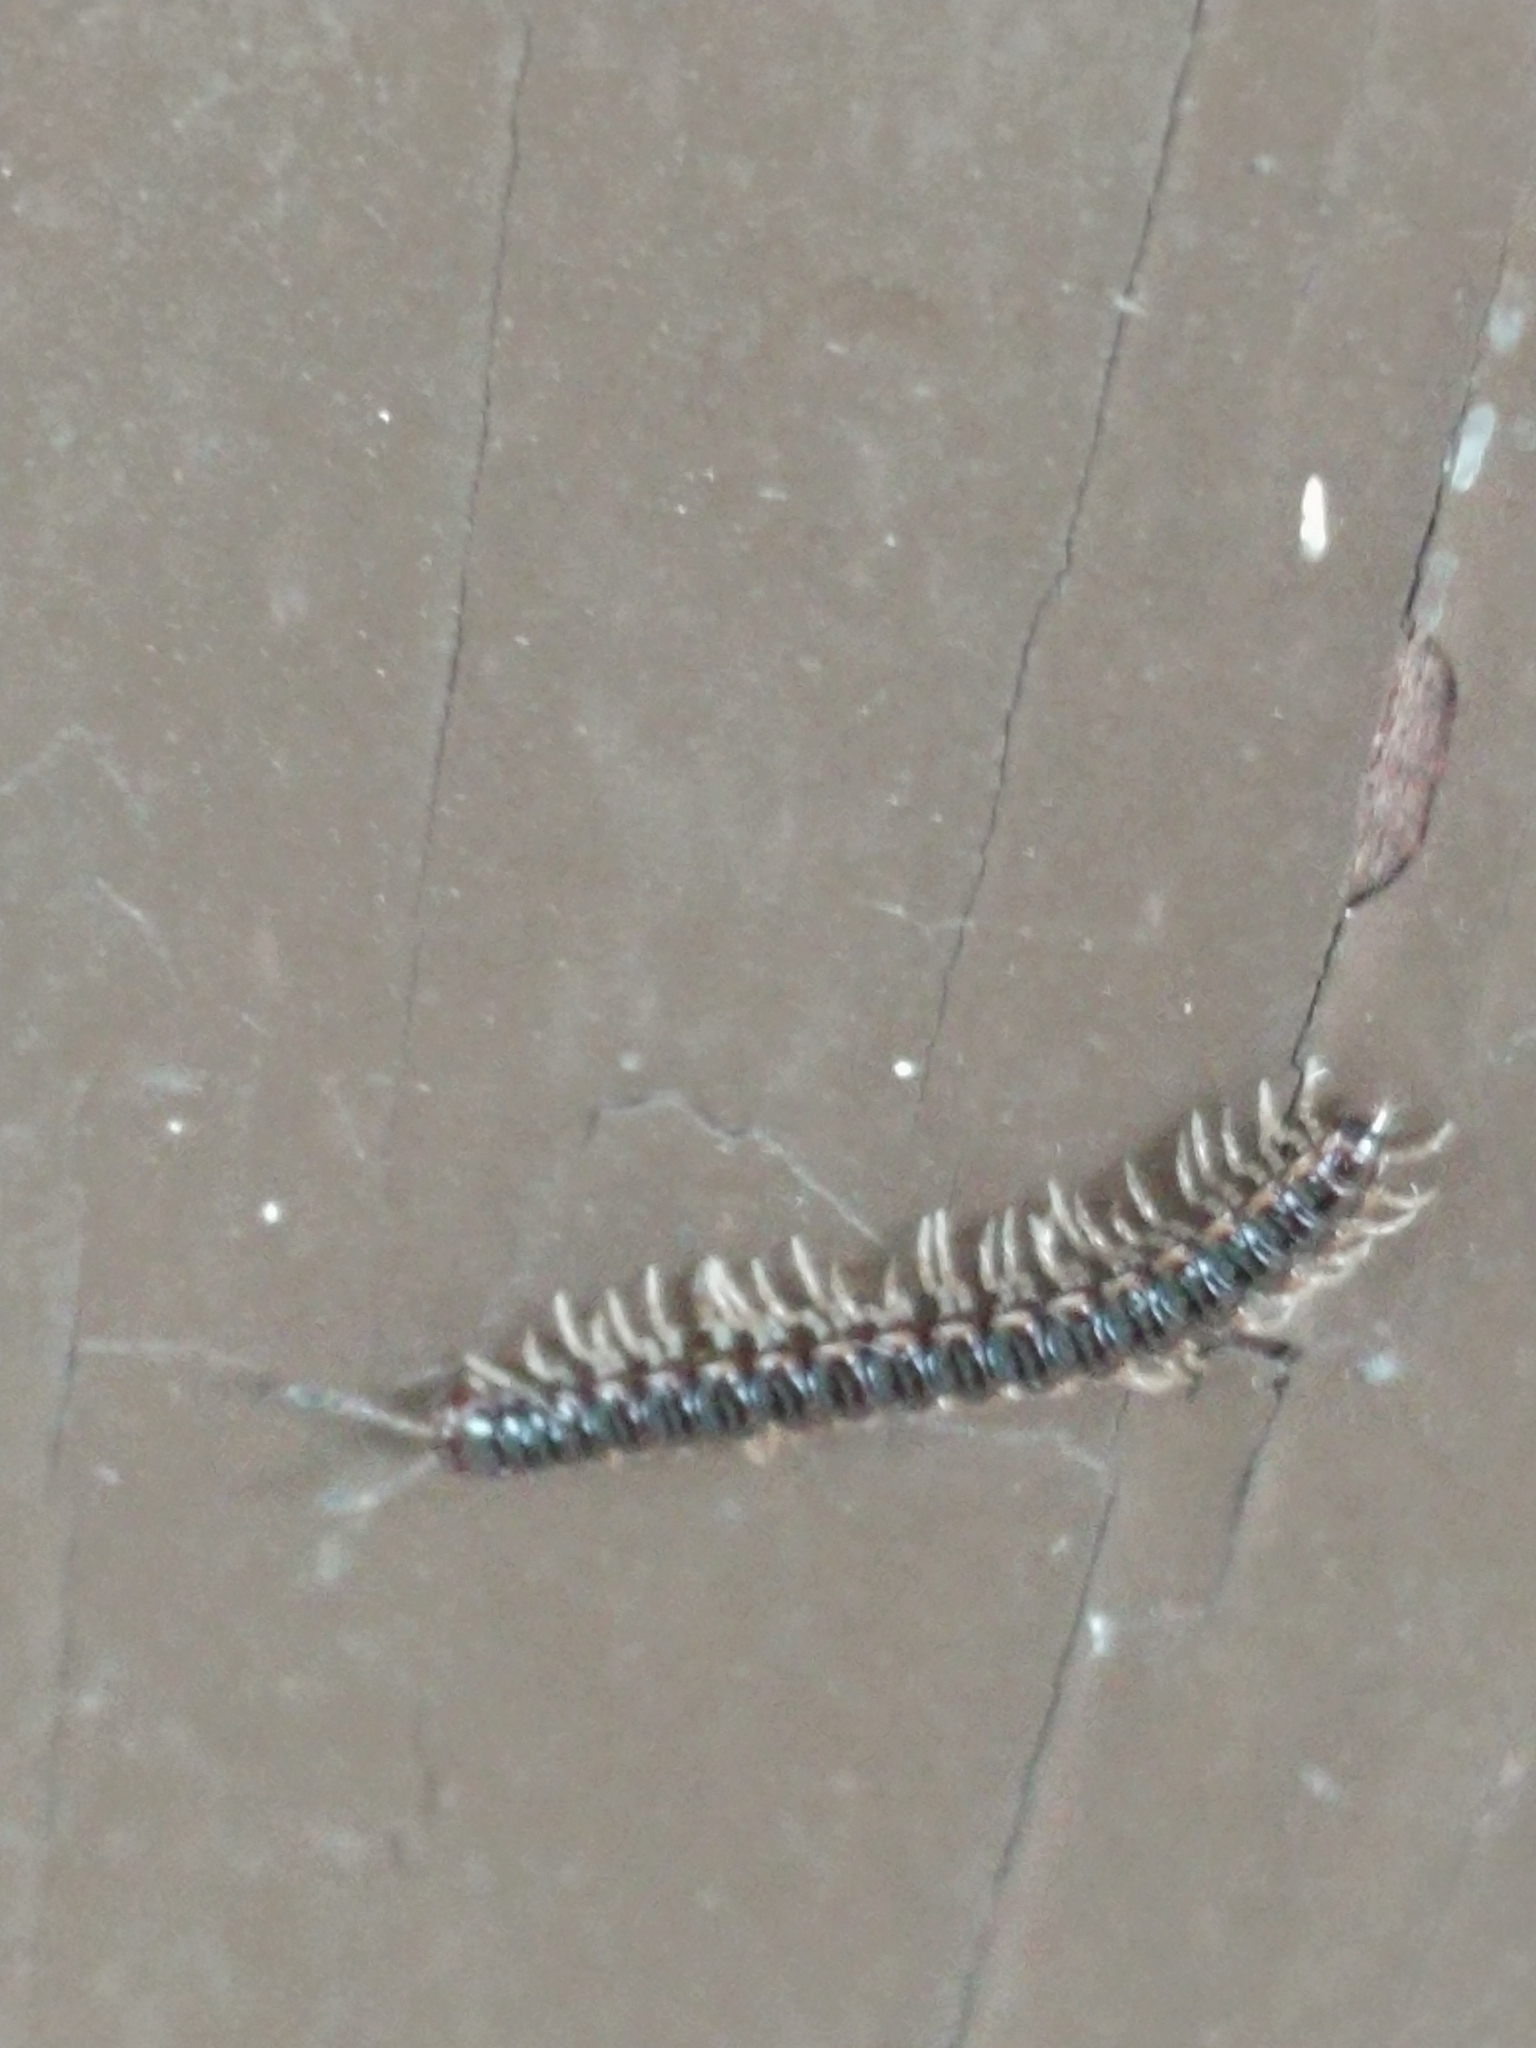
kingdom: Animalia
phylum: Arthropoda
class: Diplopoda
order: Polydesmida
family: Paradoxosomatidae
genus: Oxidus
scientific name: Oxidus gracilis
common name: Greenhouse millipede
